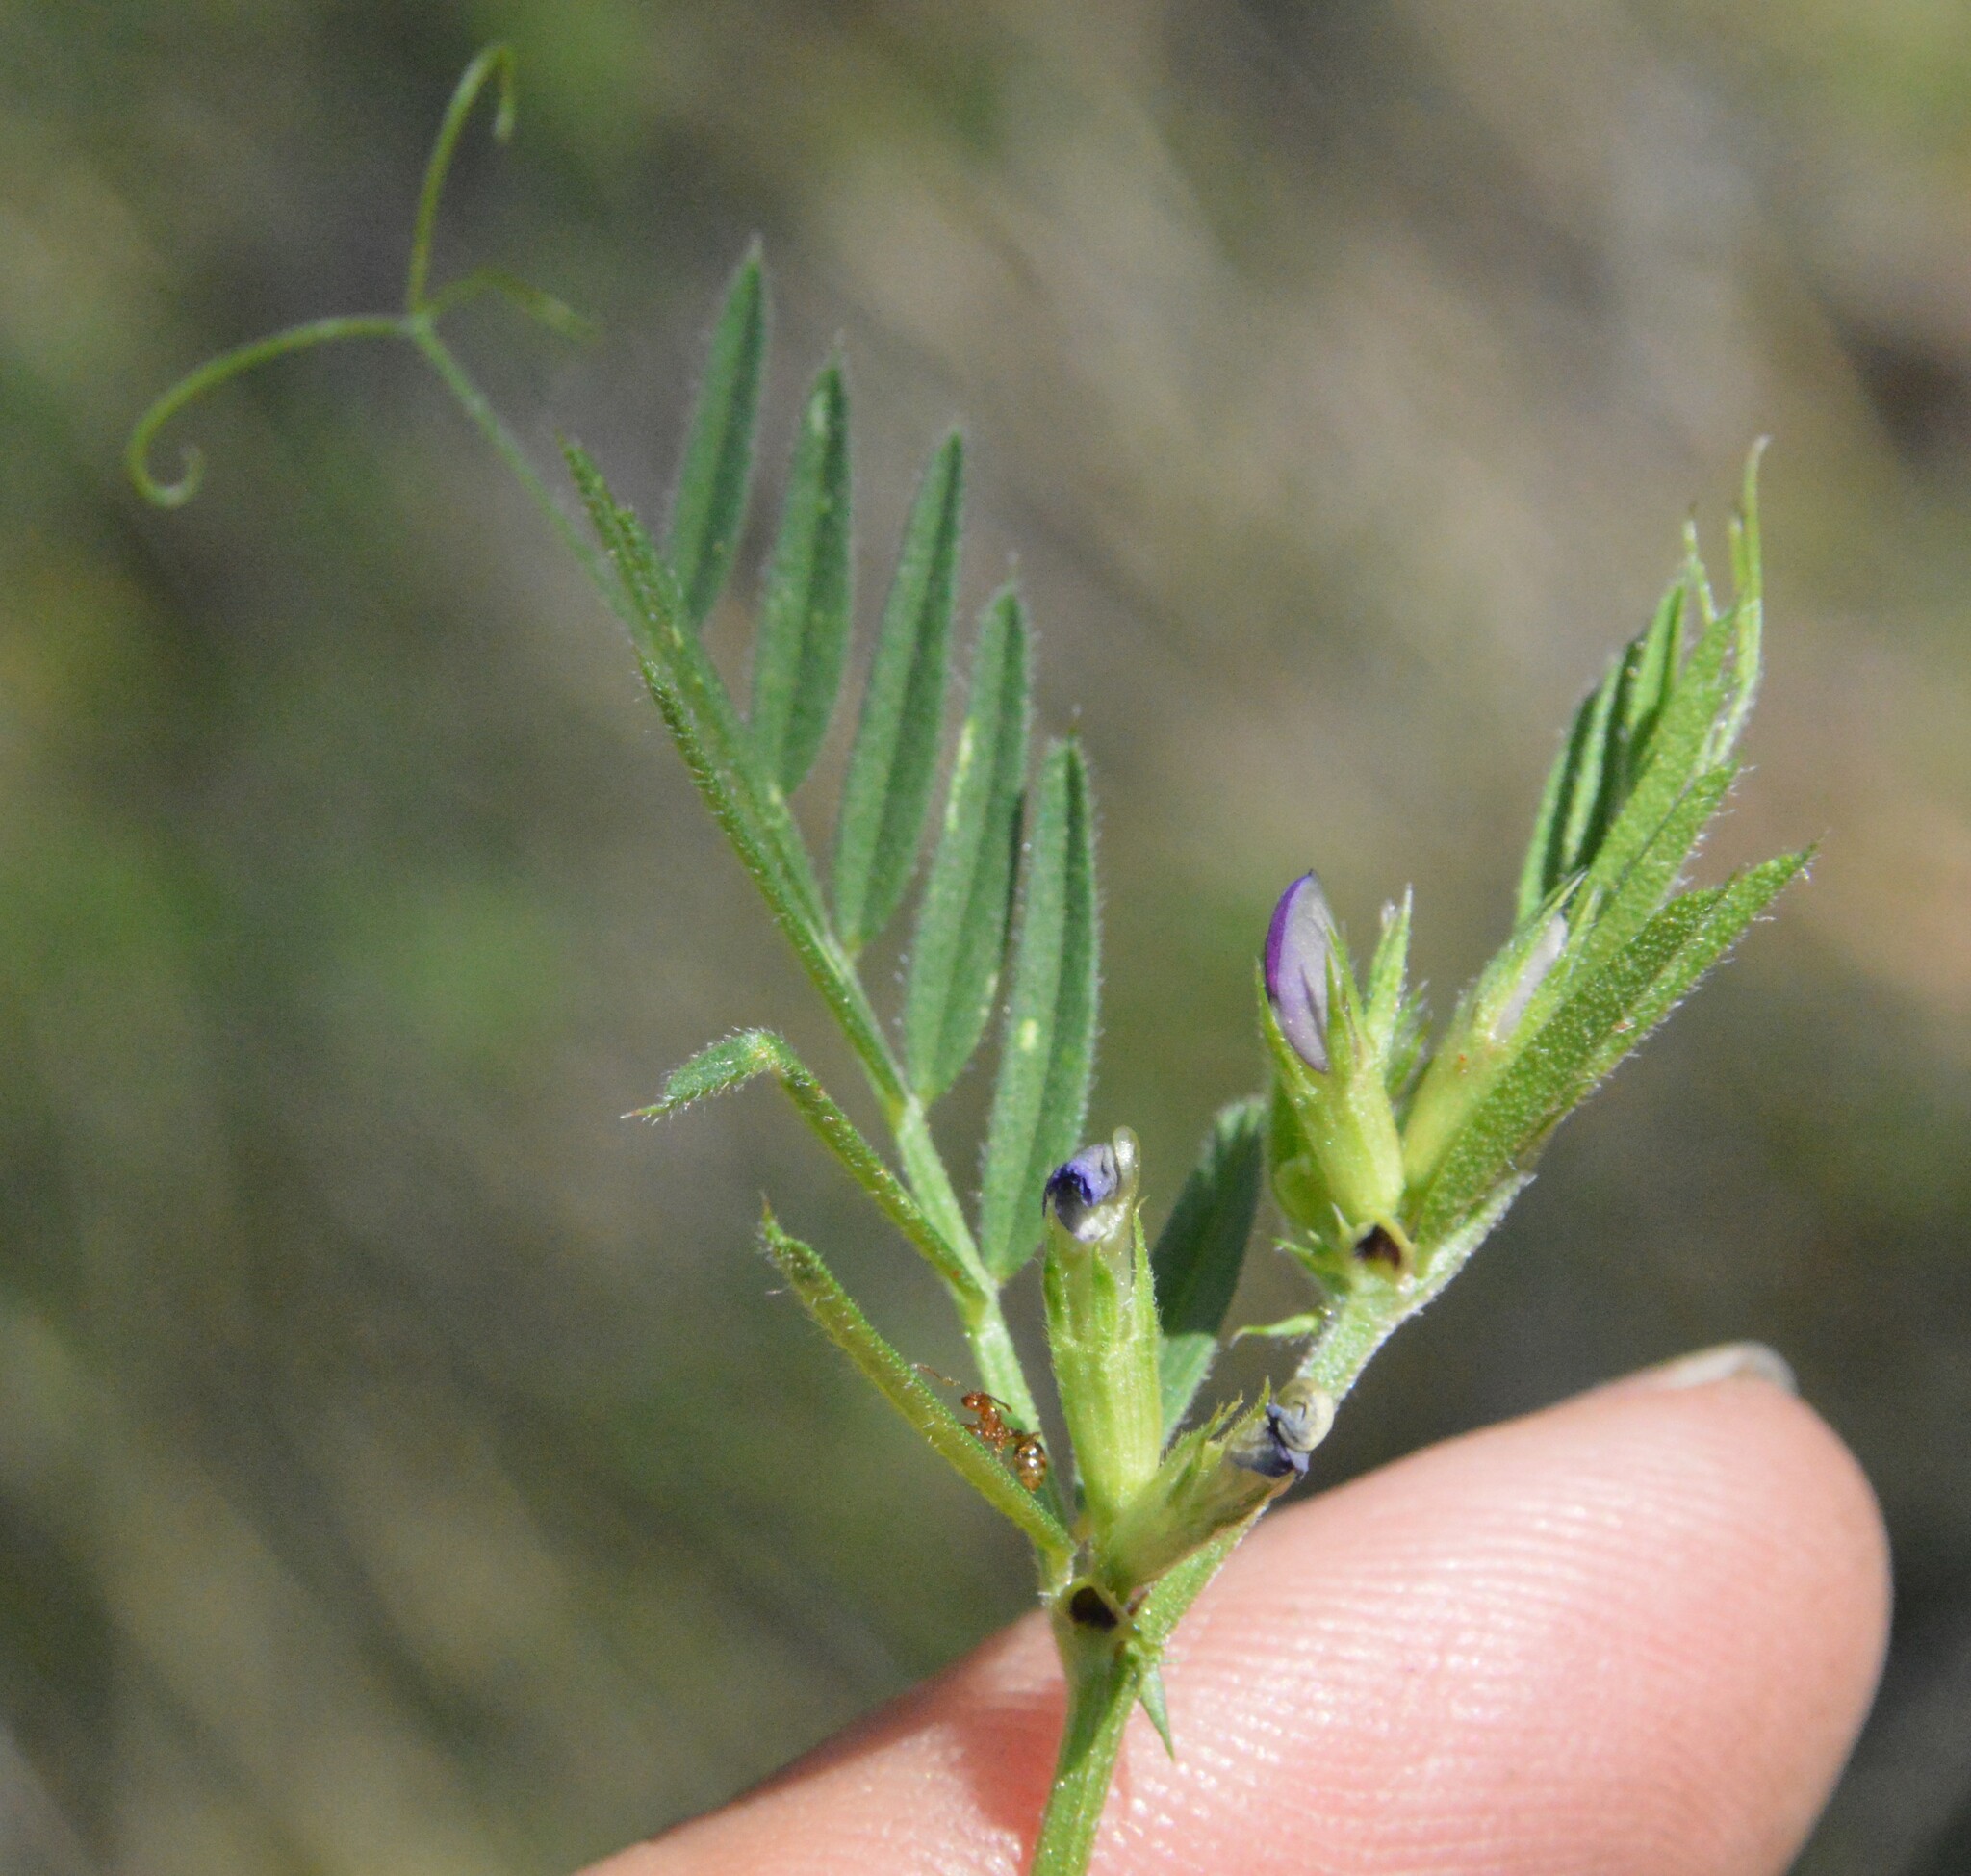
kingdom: Plantae
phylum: Tracheophyta
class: Magnoliopsida
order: Fabales
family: Fabaceae
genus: Vicia
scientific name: Vicia sativa
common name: Garden vetch
